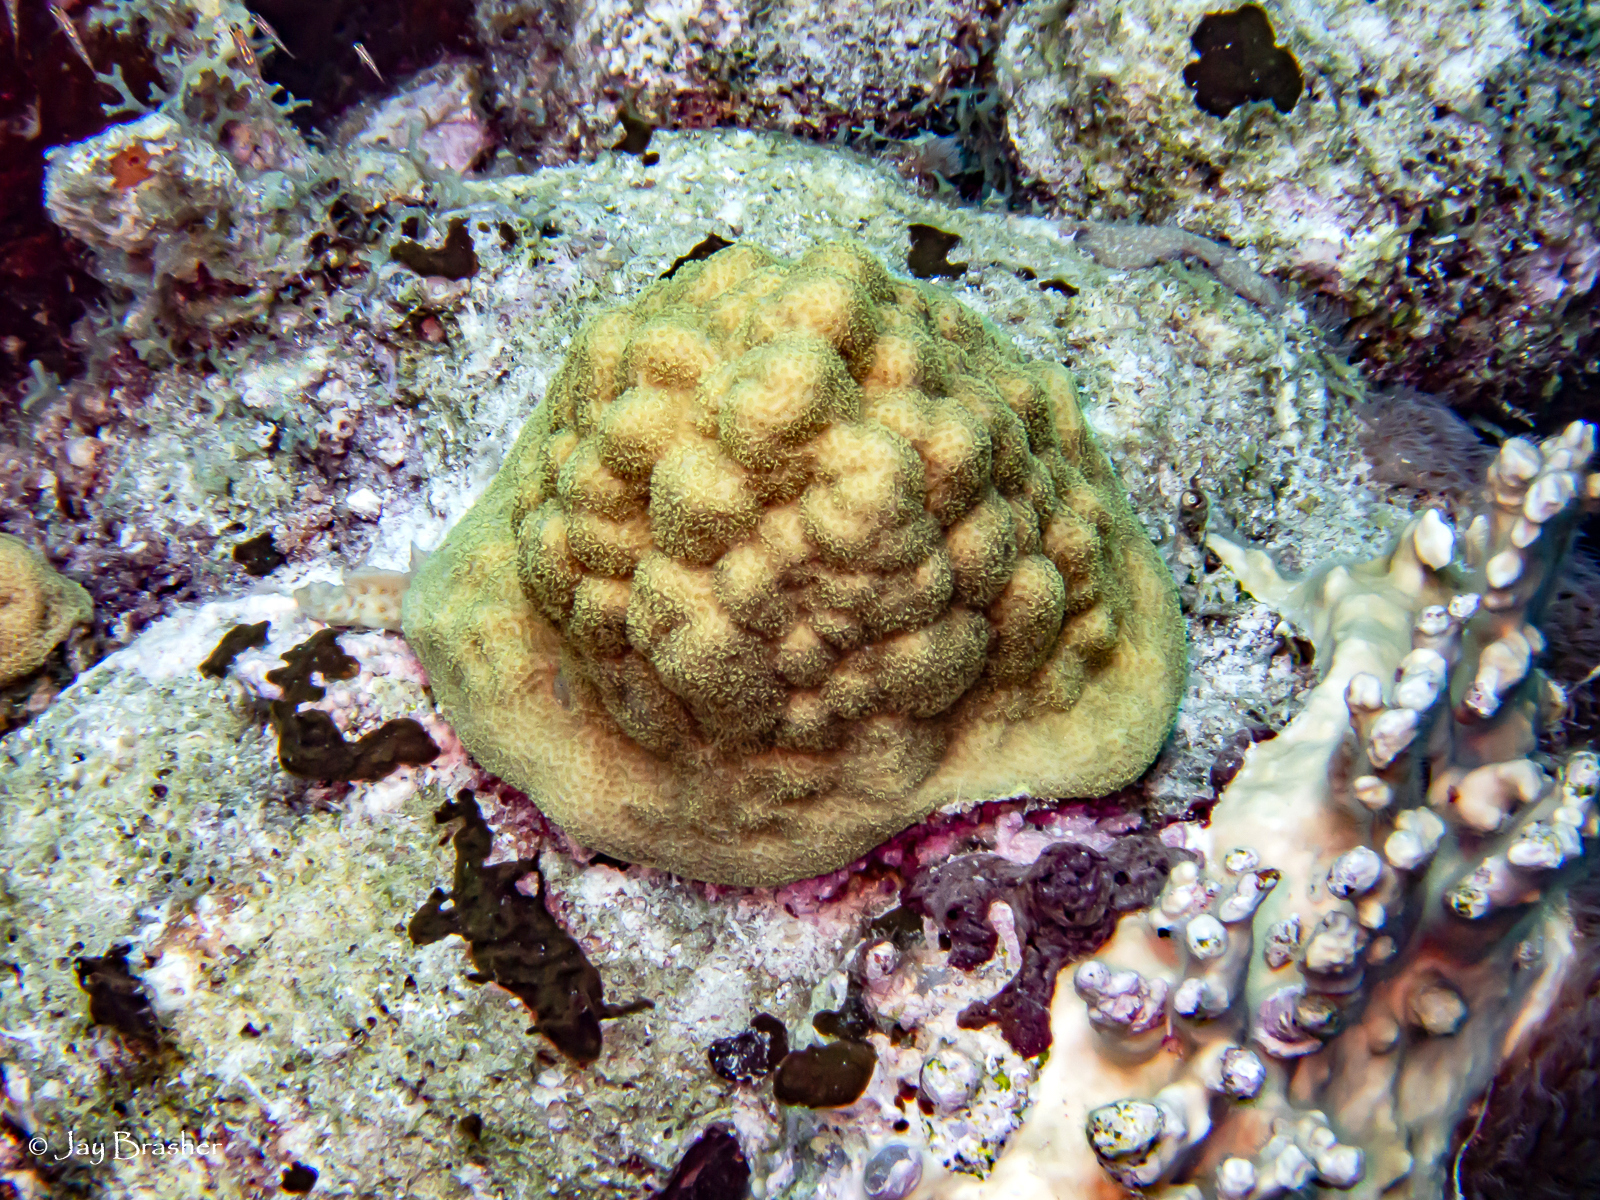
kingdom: Animalia
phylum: Cnidaria
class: Anthozoa
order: Scleractinia
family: Poritidae
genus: Porites
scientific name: Porites astreoides
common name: Mustard hill coral
